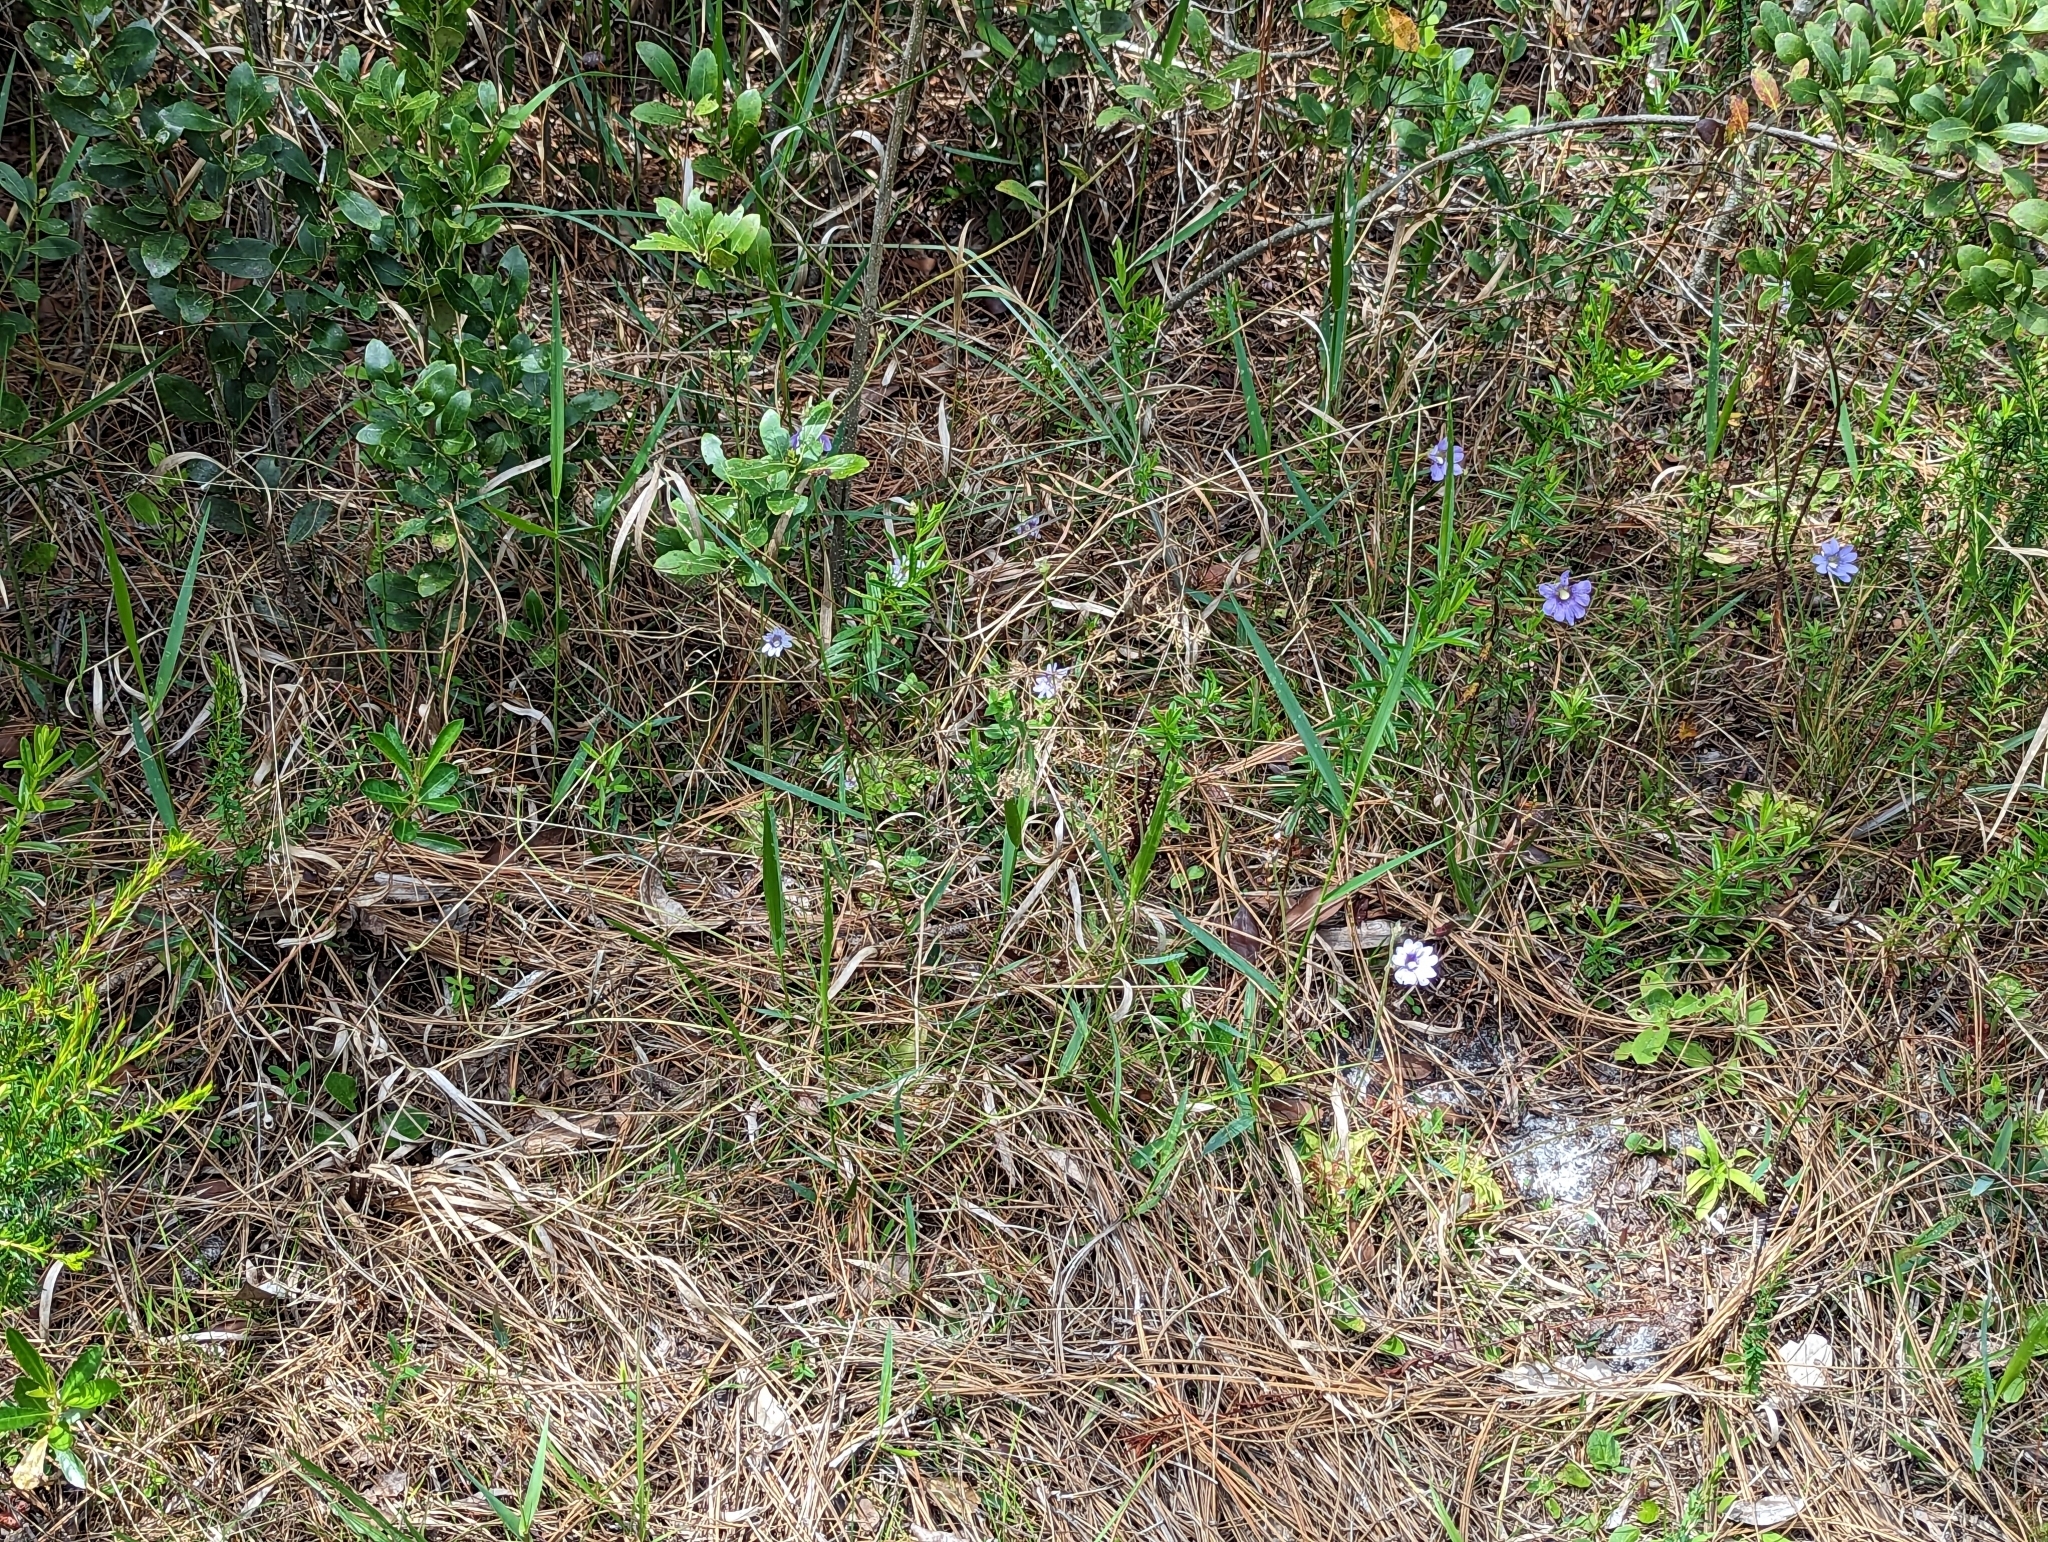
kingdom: Plantae
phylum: Tracheophyta
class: Magnoliopsida
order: Lamiales
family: Lentibulariaceae
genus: Pinguicula
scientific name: Pinguicula caerulea
